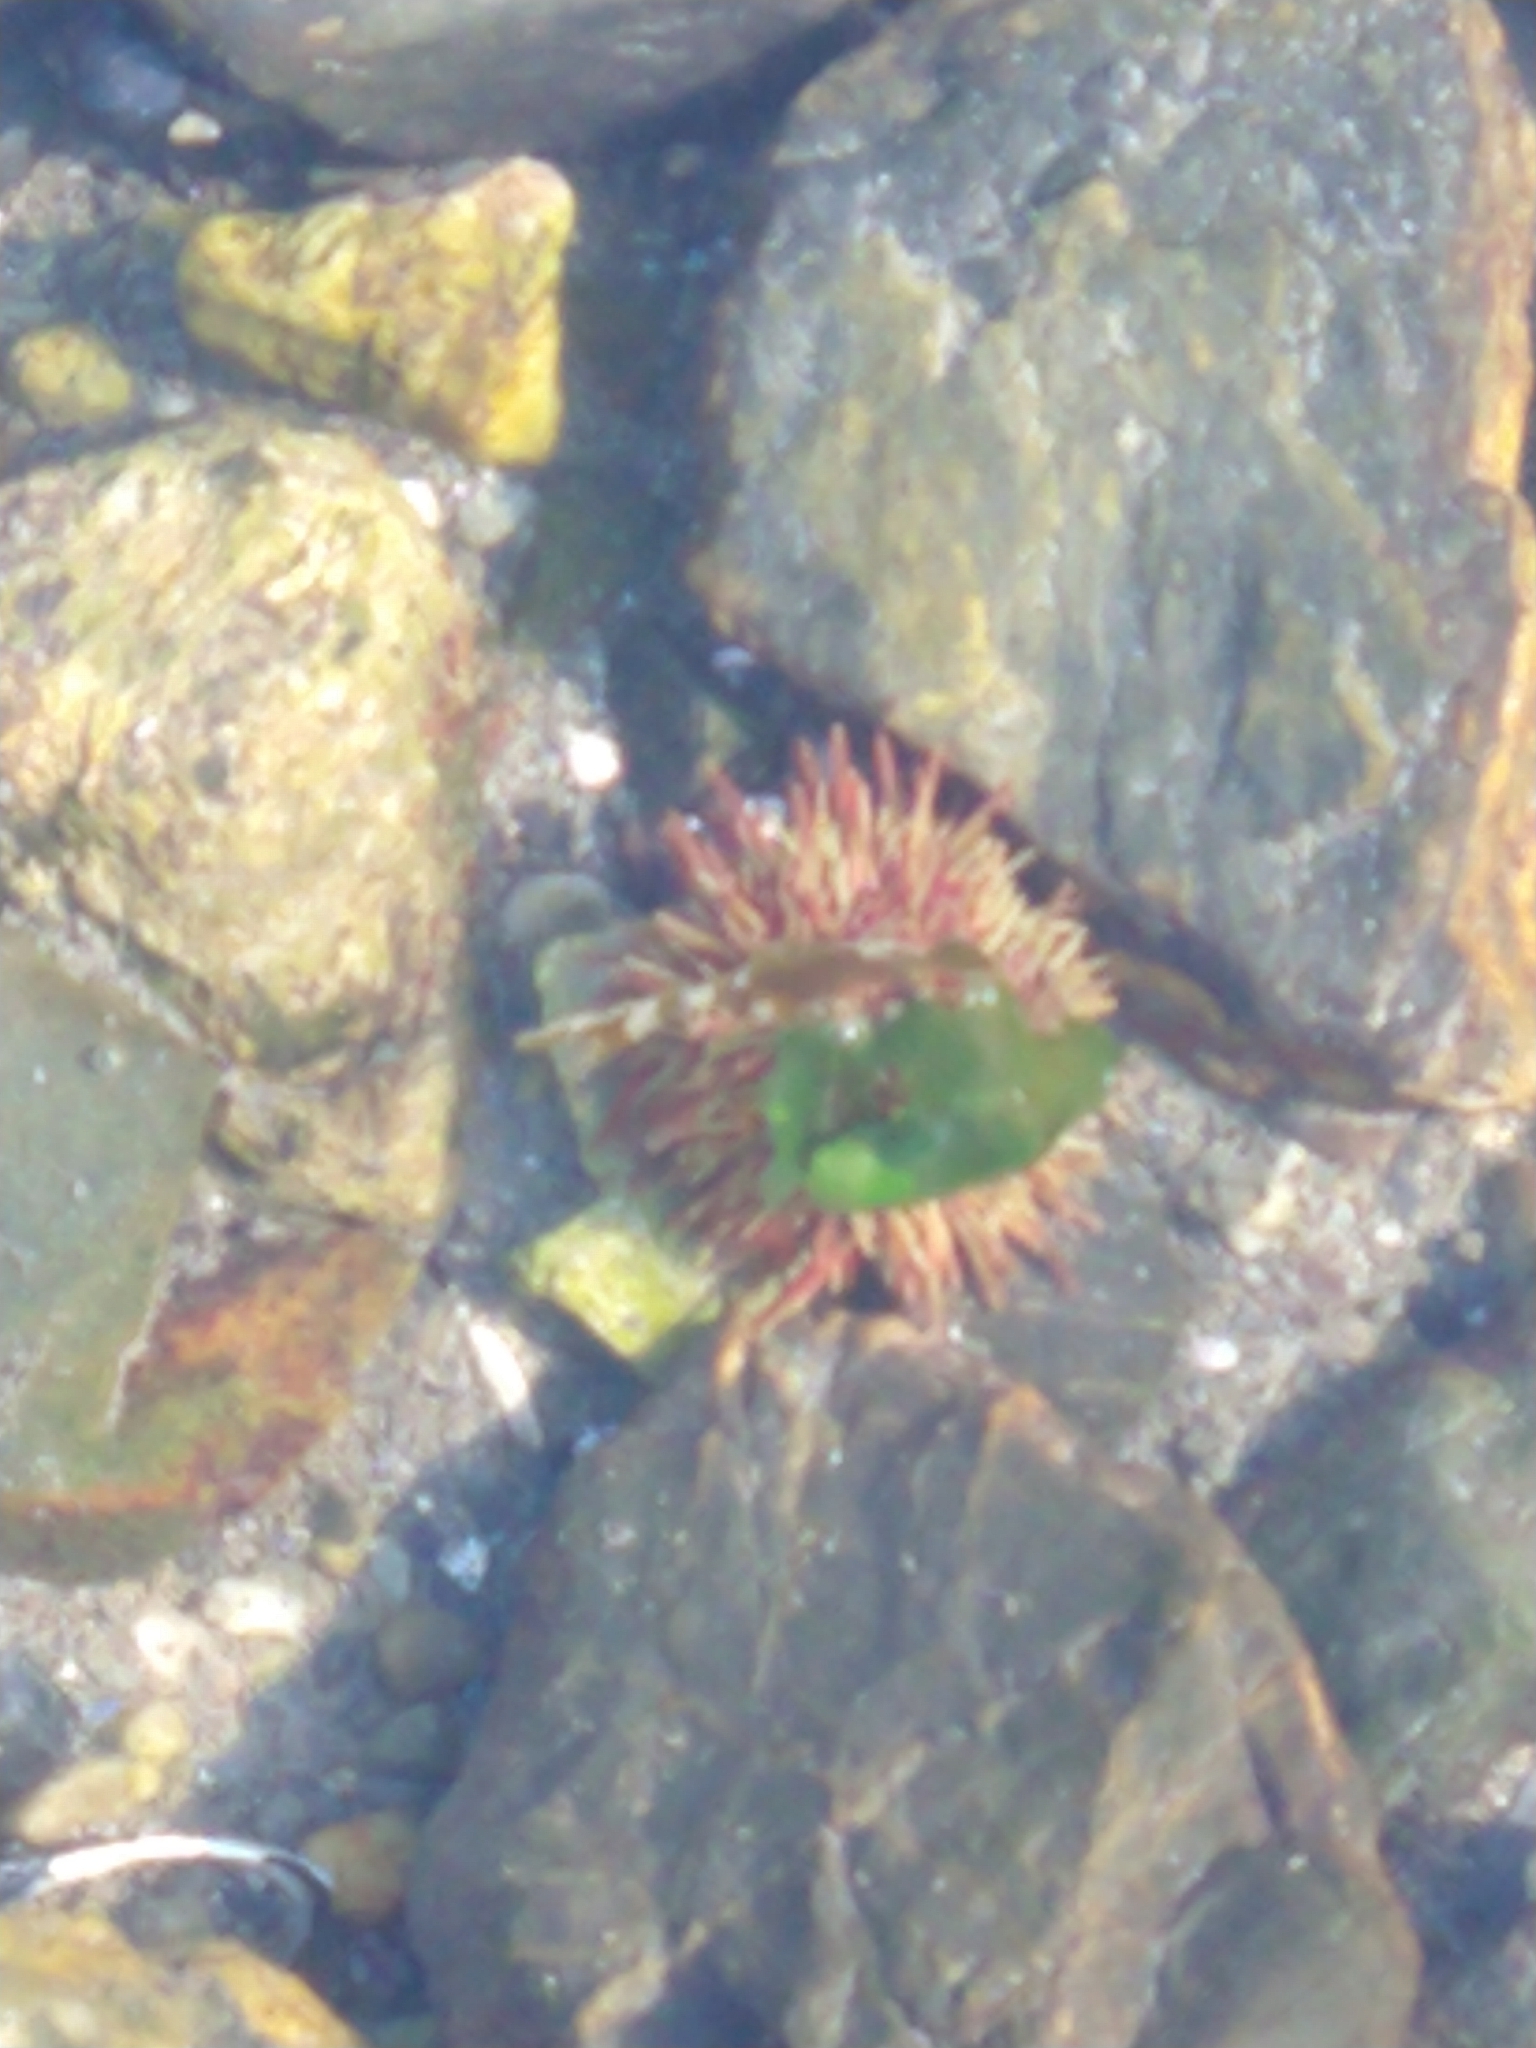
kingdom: Animalia
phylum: Echinodermata
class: Echinoidea
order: Camarodonta
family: Parechinidae
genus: Loxechinus
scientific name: Loxechinus albus
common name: Chilean sea urchin
